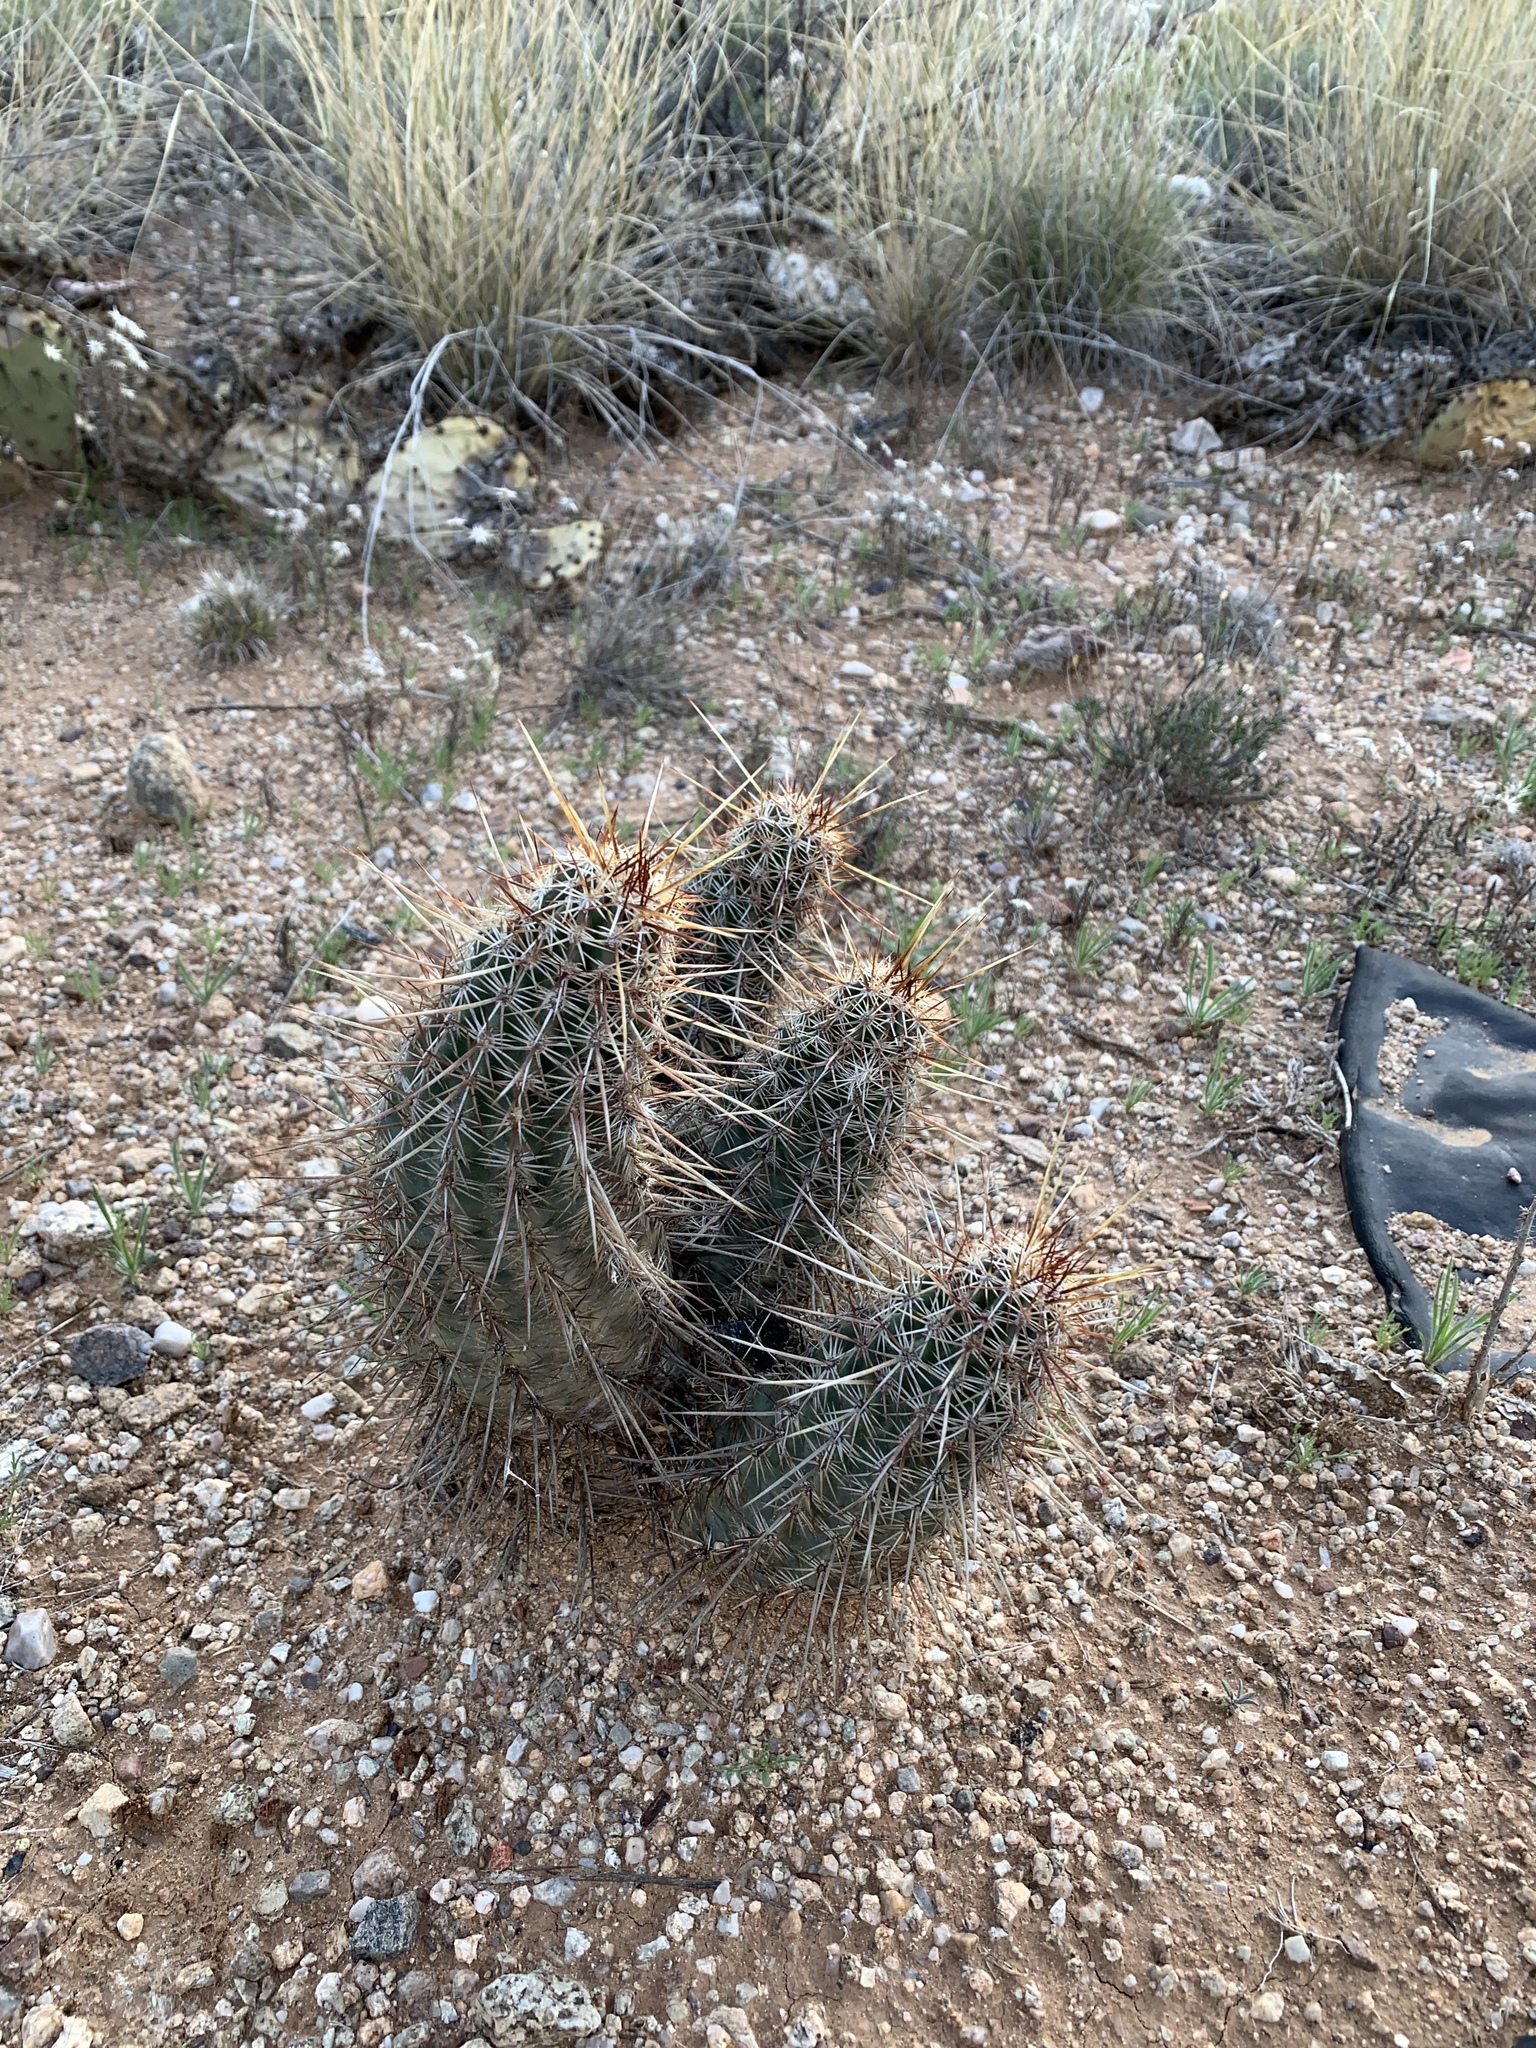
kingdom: Plantae
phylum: Tracheophyta
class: Magnoliopsida
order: Caryophyllales
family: Cactaceae
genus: Echinocereus
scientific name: Echinocereus fasciculatus
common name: Bundle hedgehog
